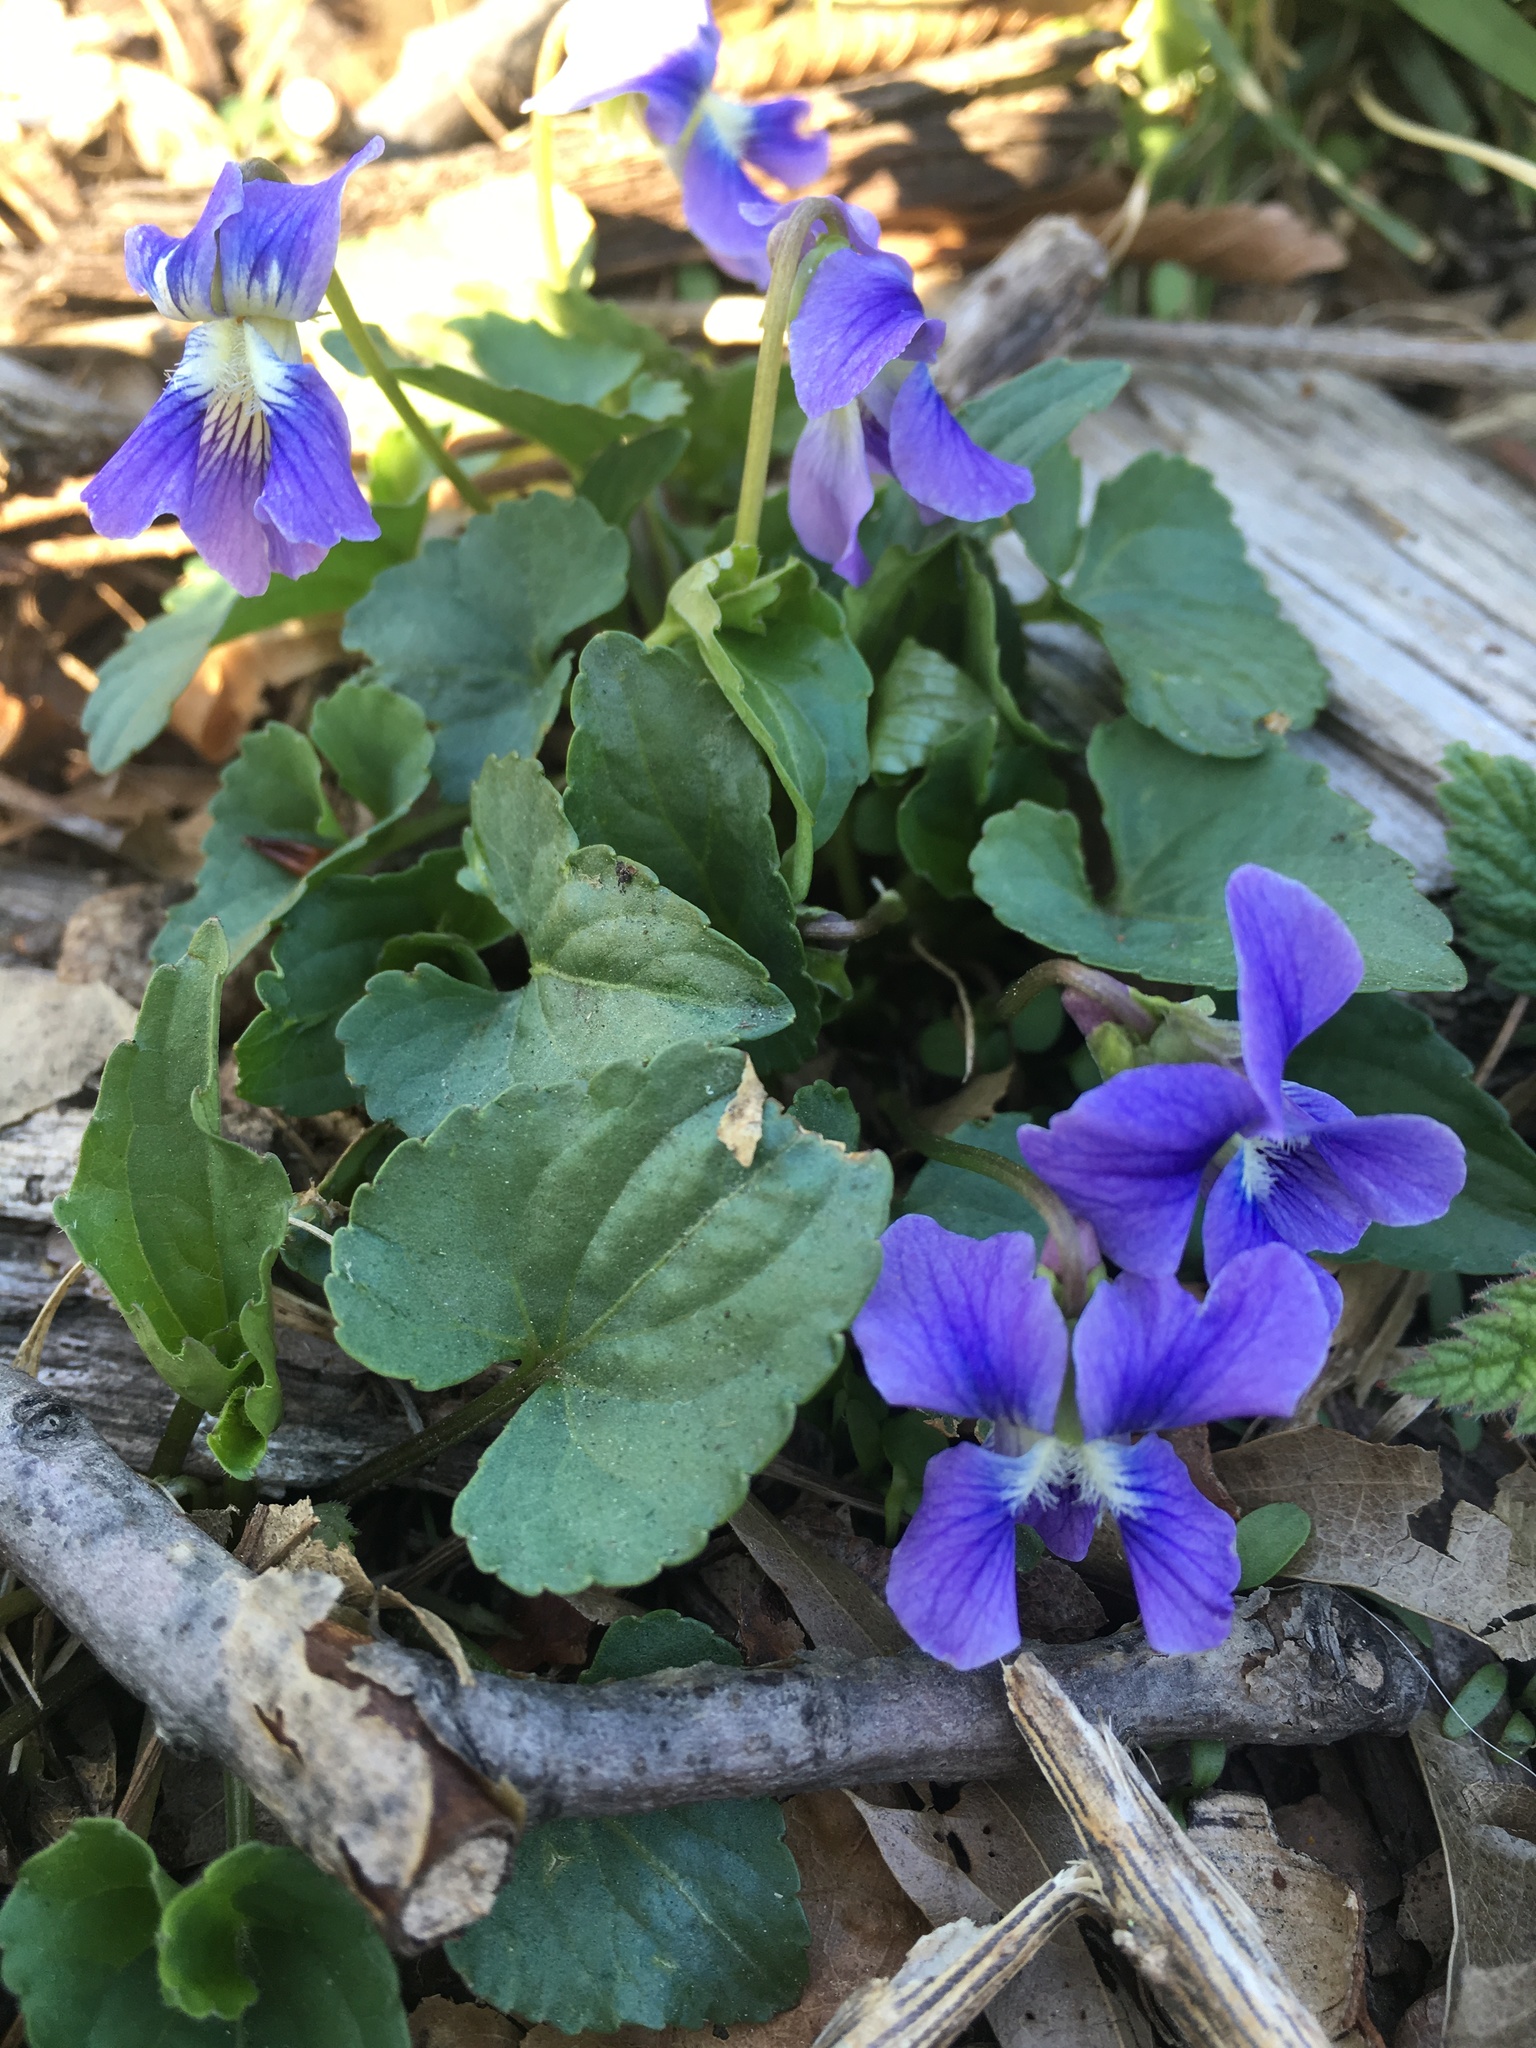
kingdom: Plantae
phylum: Tracheophyta
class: Magnoliopsida
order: Malpighiales
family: Violaceae
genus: Viola
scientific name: Viola sororia
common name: Dooryard violet
